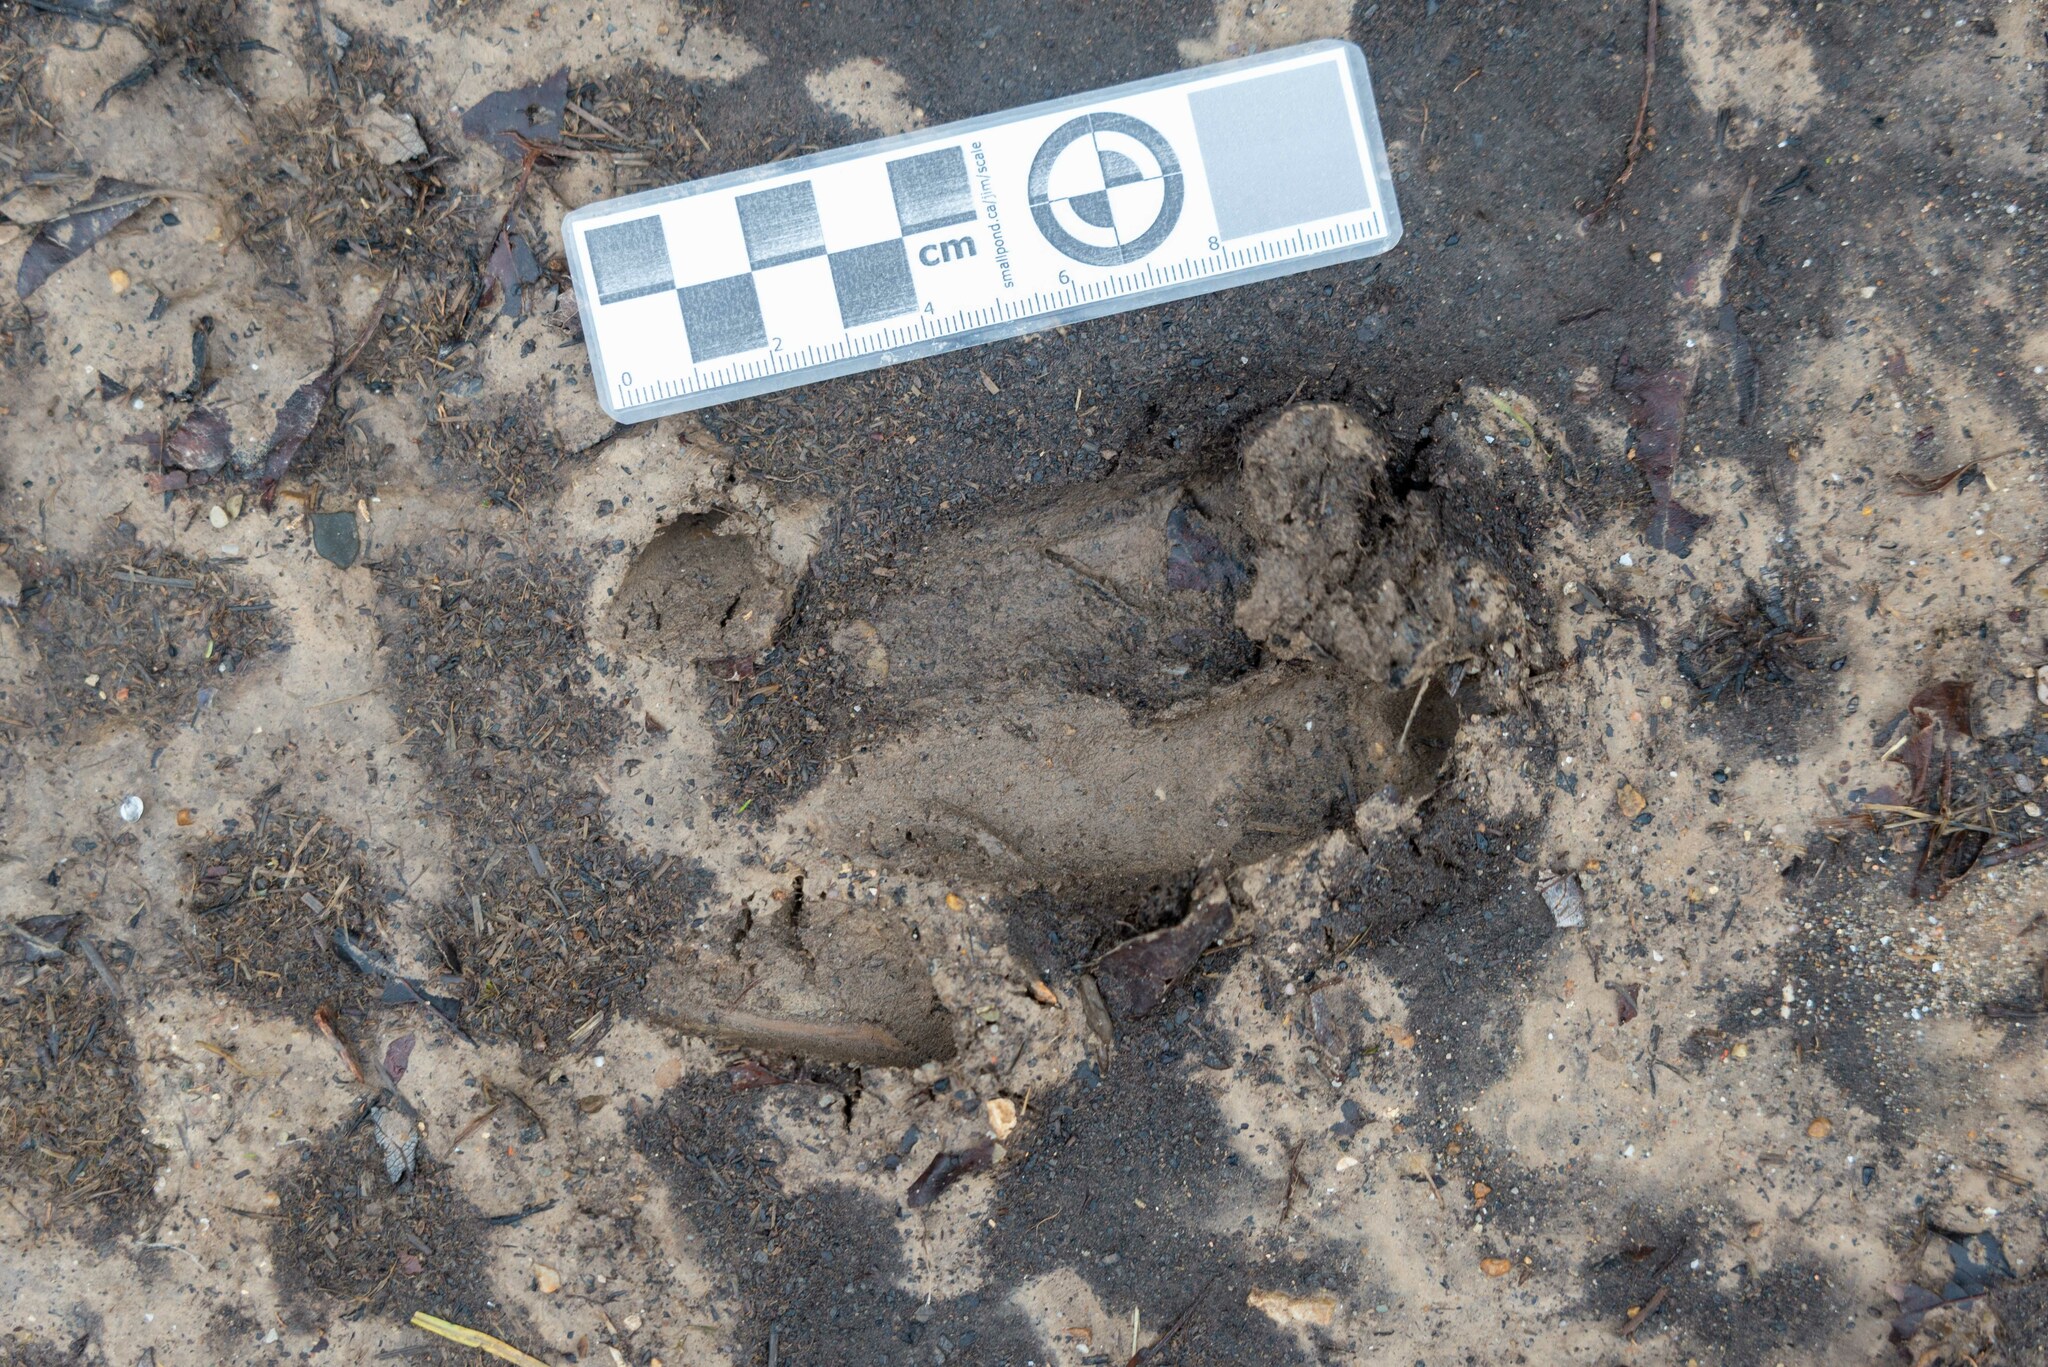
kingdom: Animalia
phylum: Chordata
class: Mammalia
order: Artiodactyla
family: Suidae
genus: Sus
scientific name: Sus scrofa
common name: Wild boar
